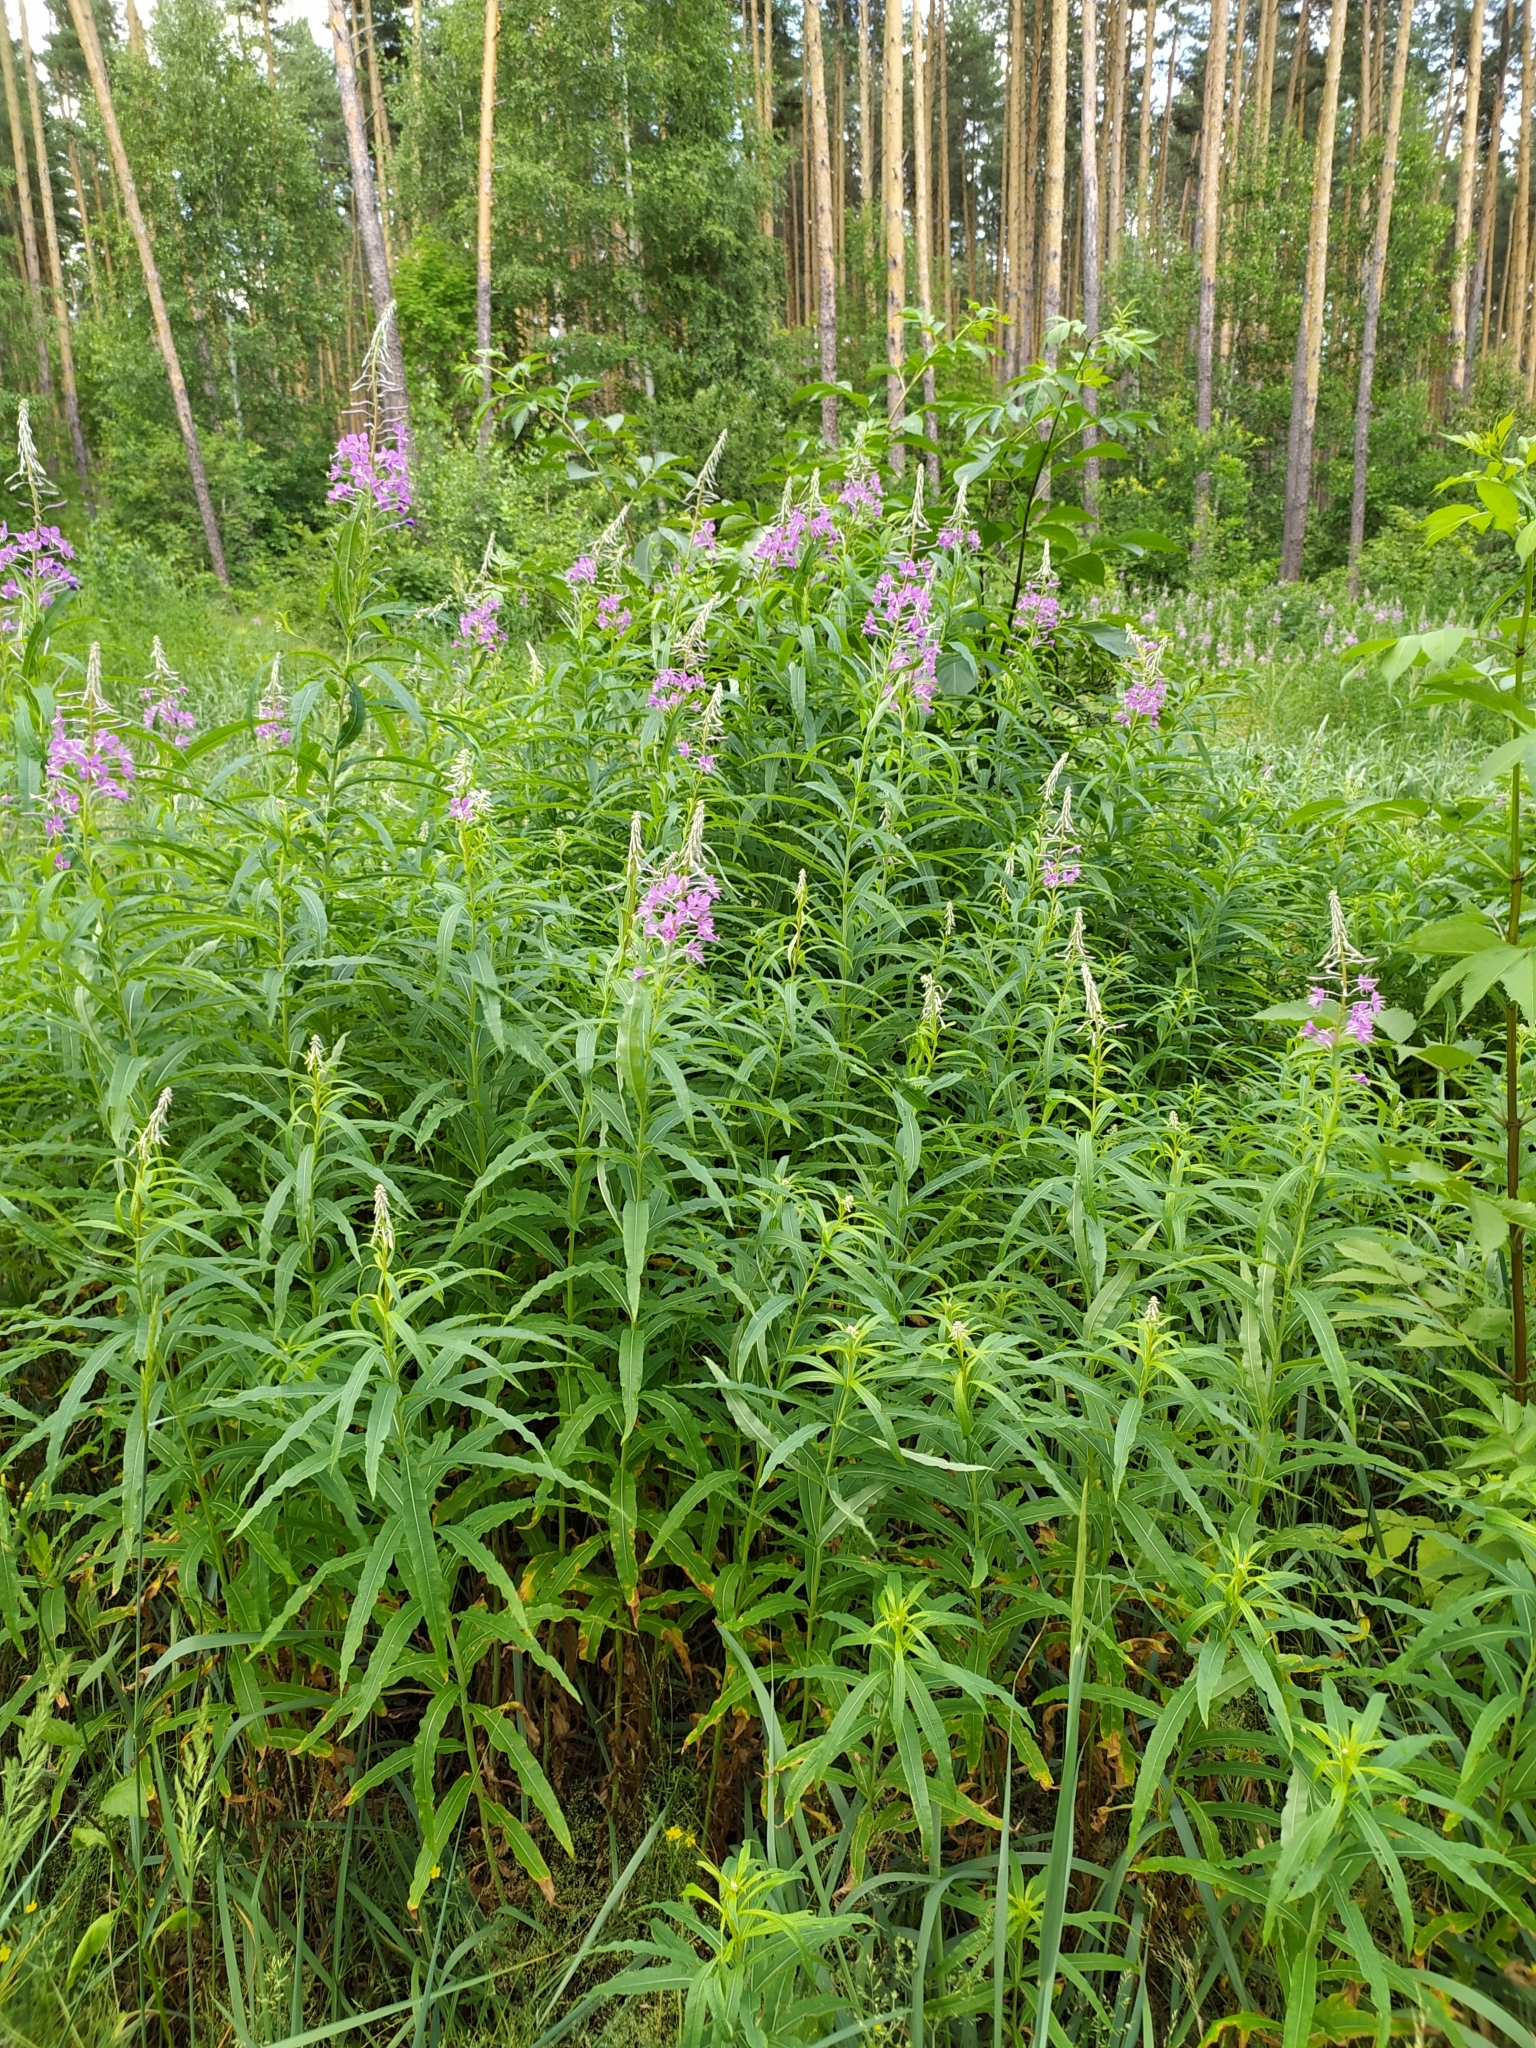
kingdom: Plantae
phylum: Tracheophyta
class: Magnoliopsida
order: Myrtales
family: Onagraceae
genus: Chamaenerion
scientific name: Chamaenerion angustifolium
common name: Fireweed
